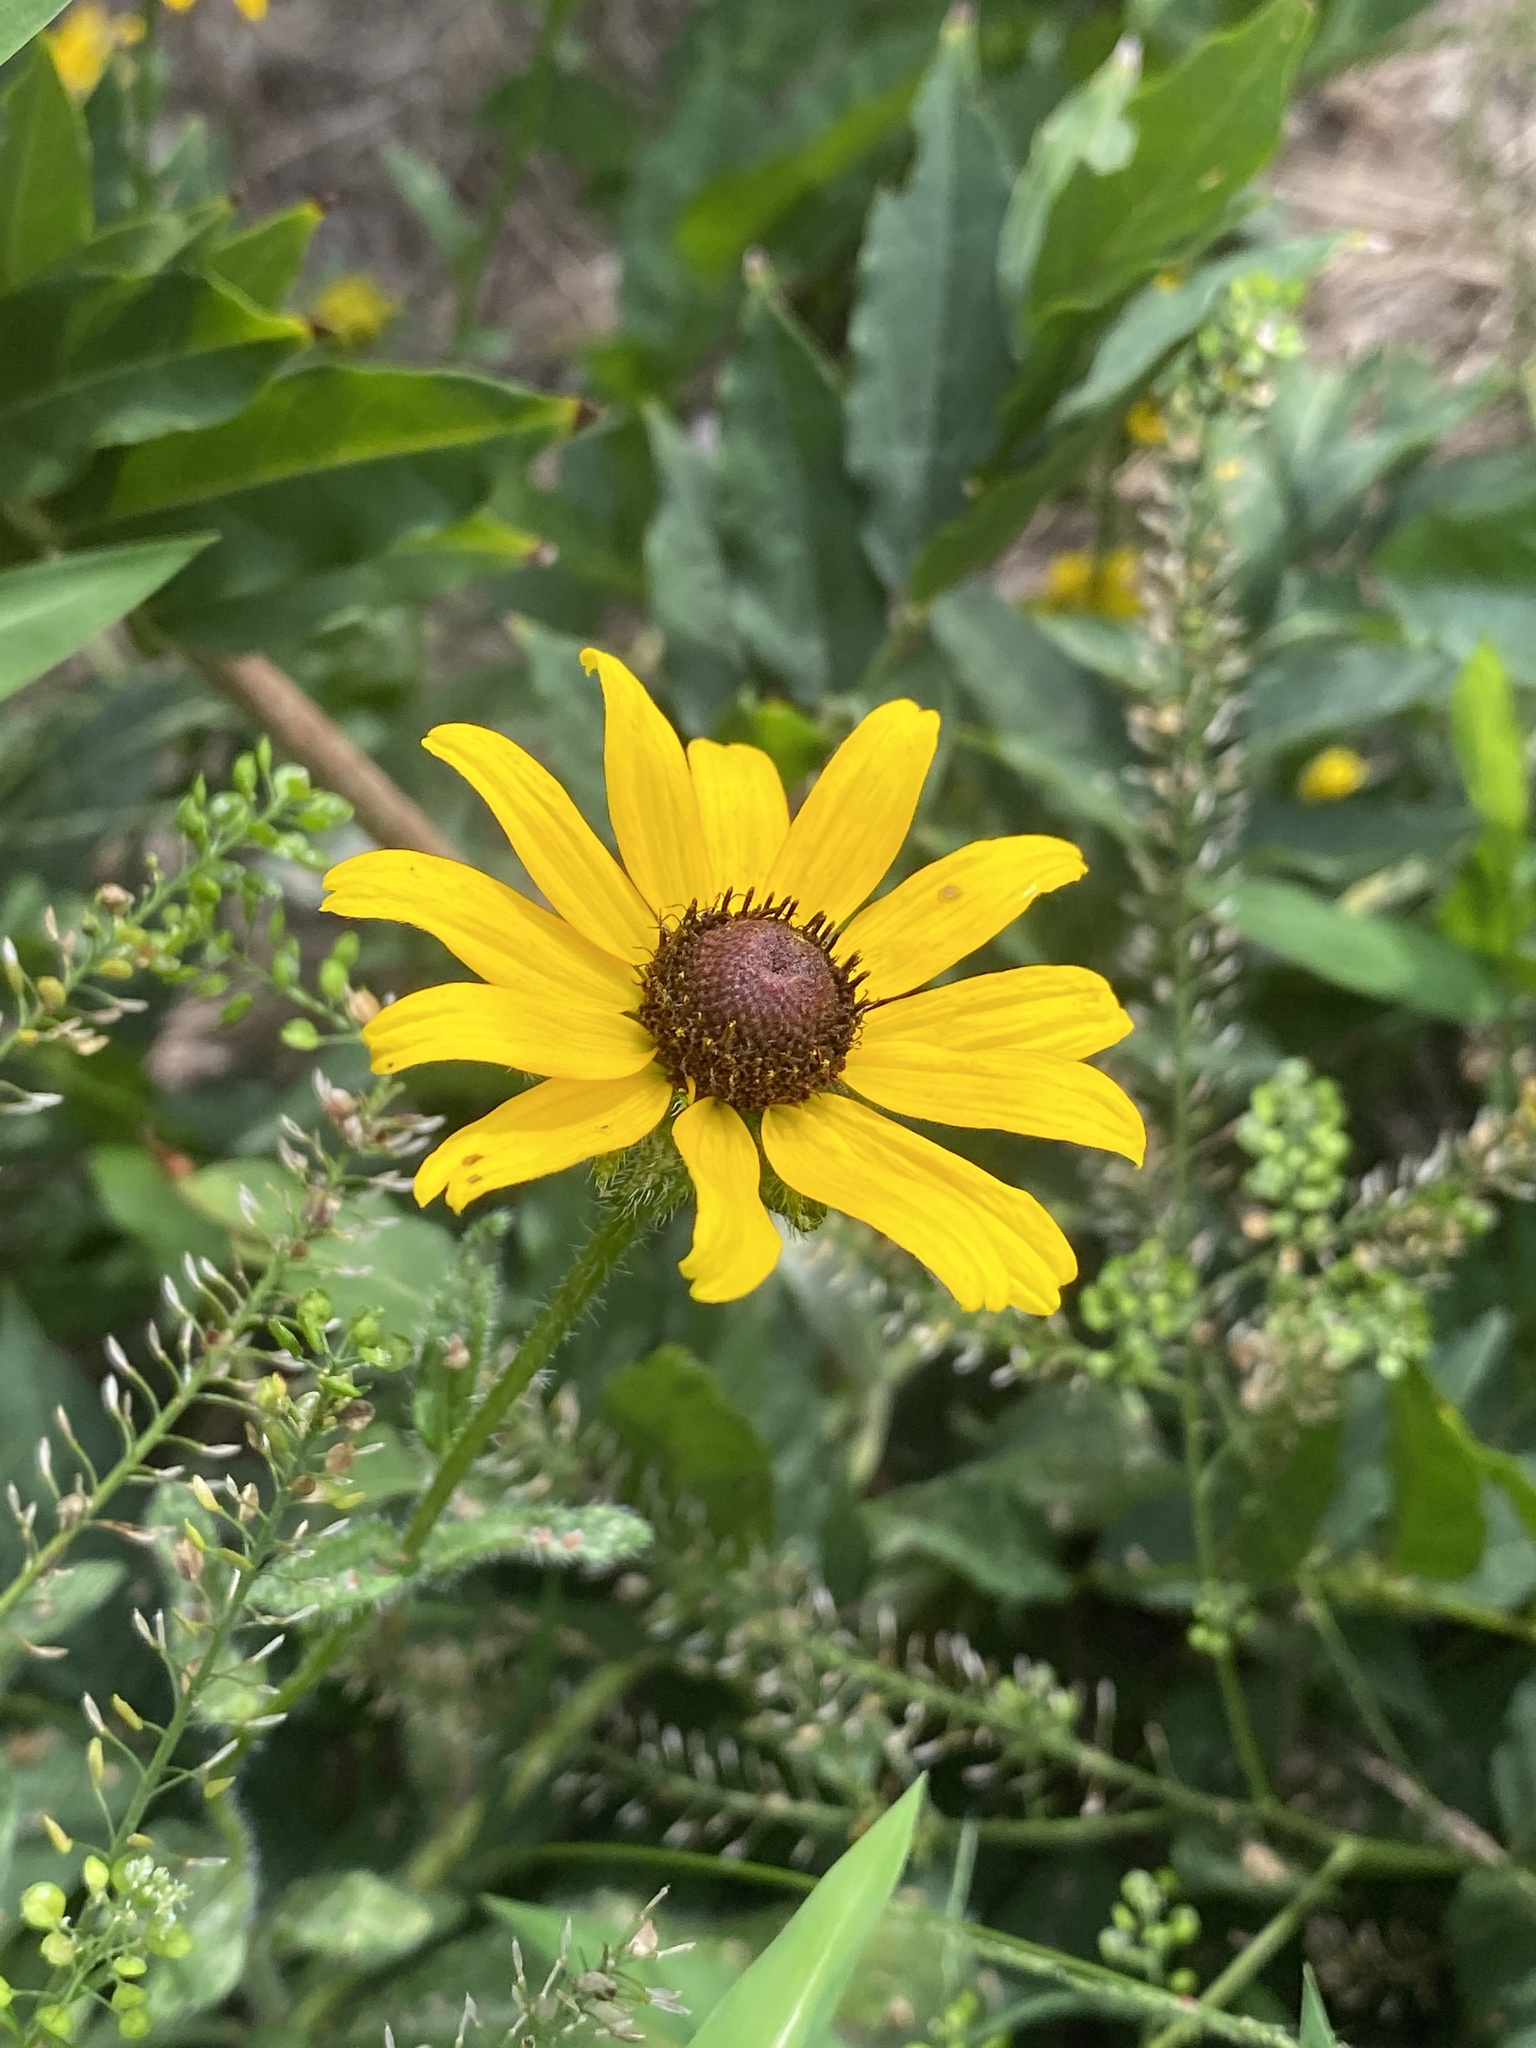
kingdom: Plantae
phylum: Tracheophyta
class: Magnoliopsida
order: Asterales
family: Asteraceae
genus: Rudbeckia
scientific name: Rudbeckia hirta
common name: Black-eyed-susan
